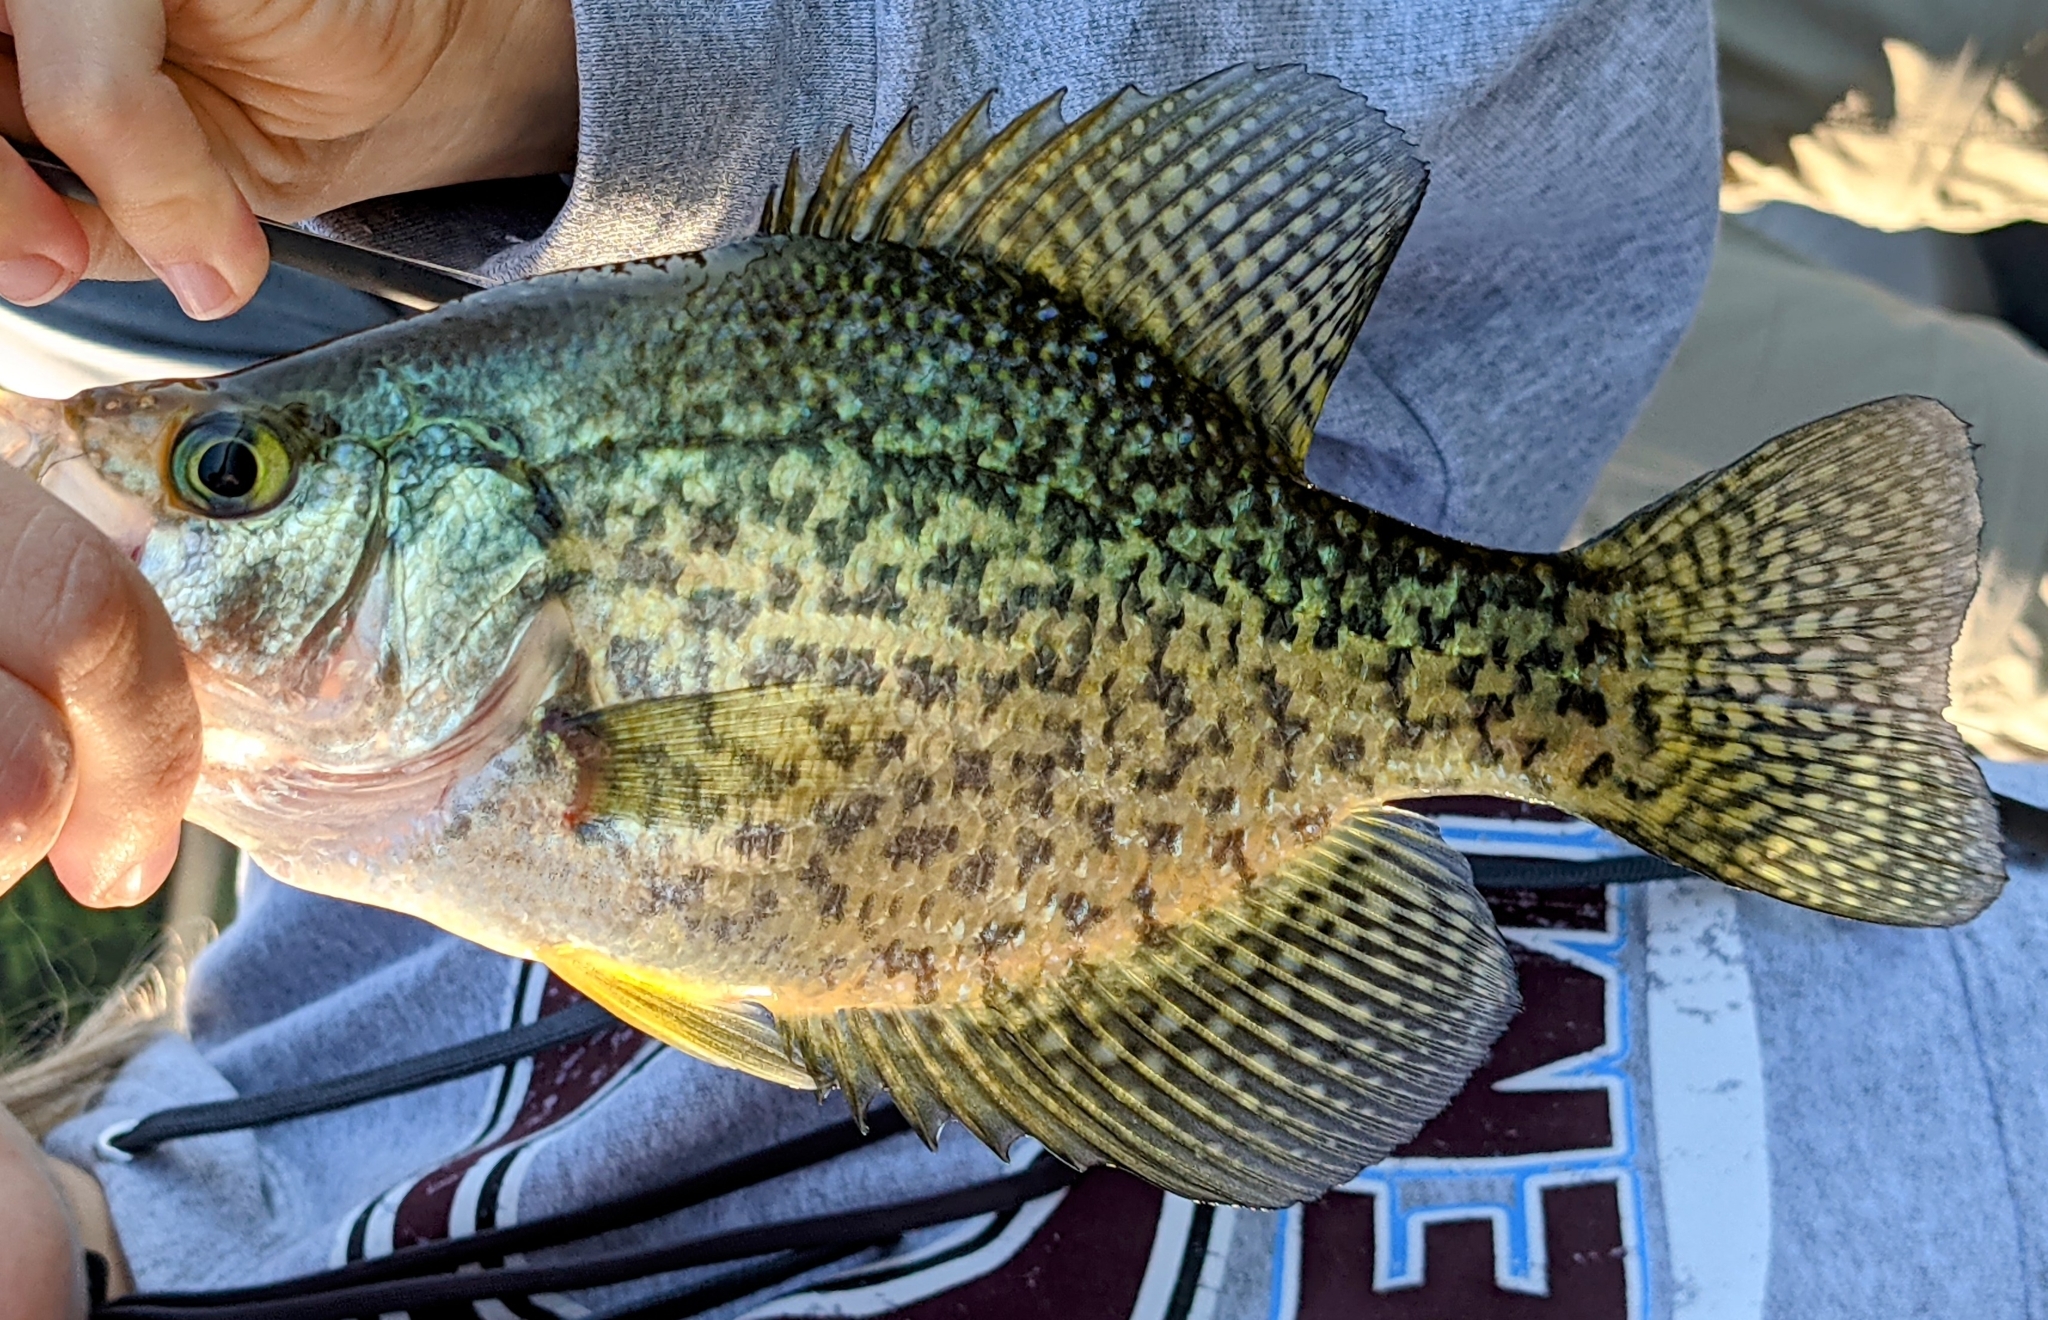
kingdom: Animalia
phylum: Chordata
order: Perciformes
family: Centrarchidae
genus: Pomoxis
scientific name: Pomoxis nigromaculatus
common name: Black crappie
